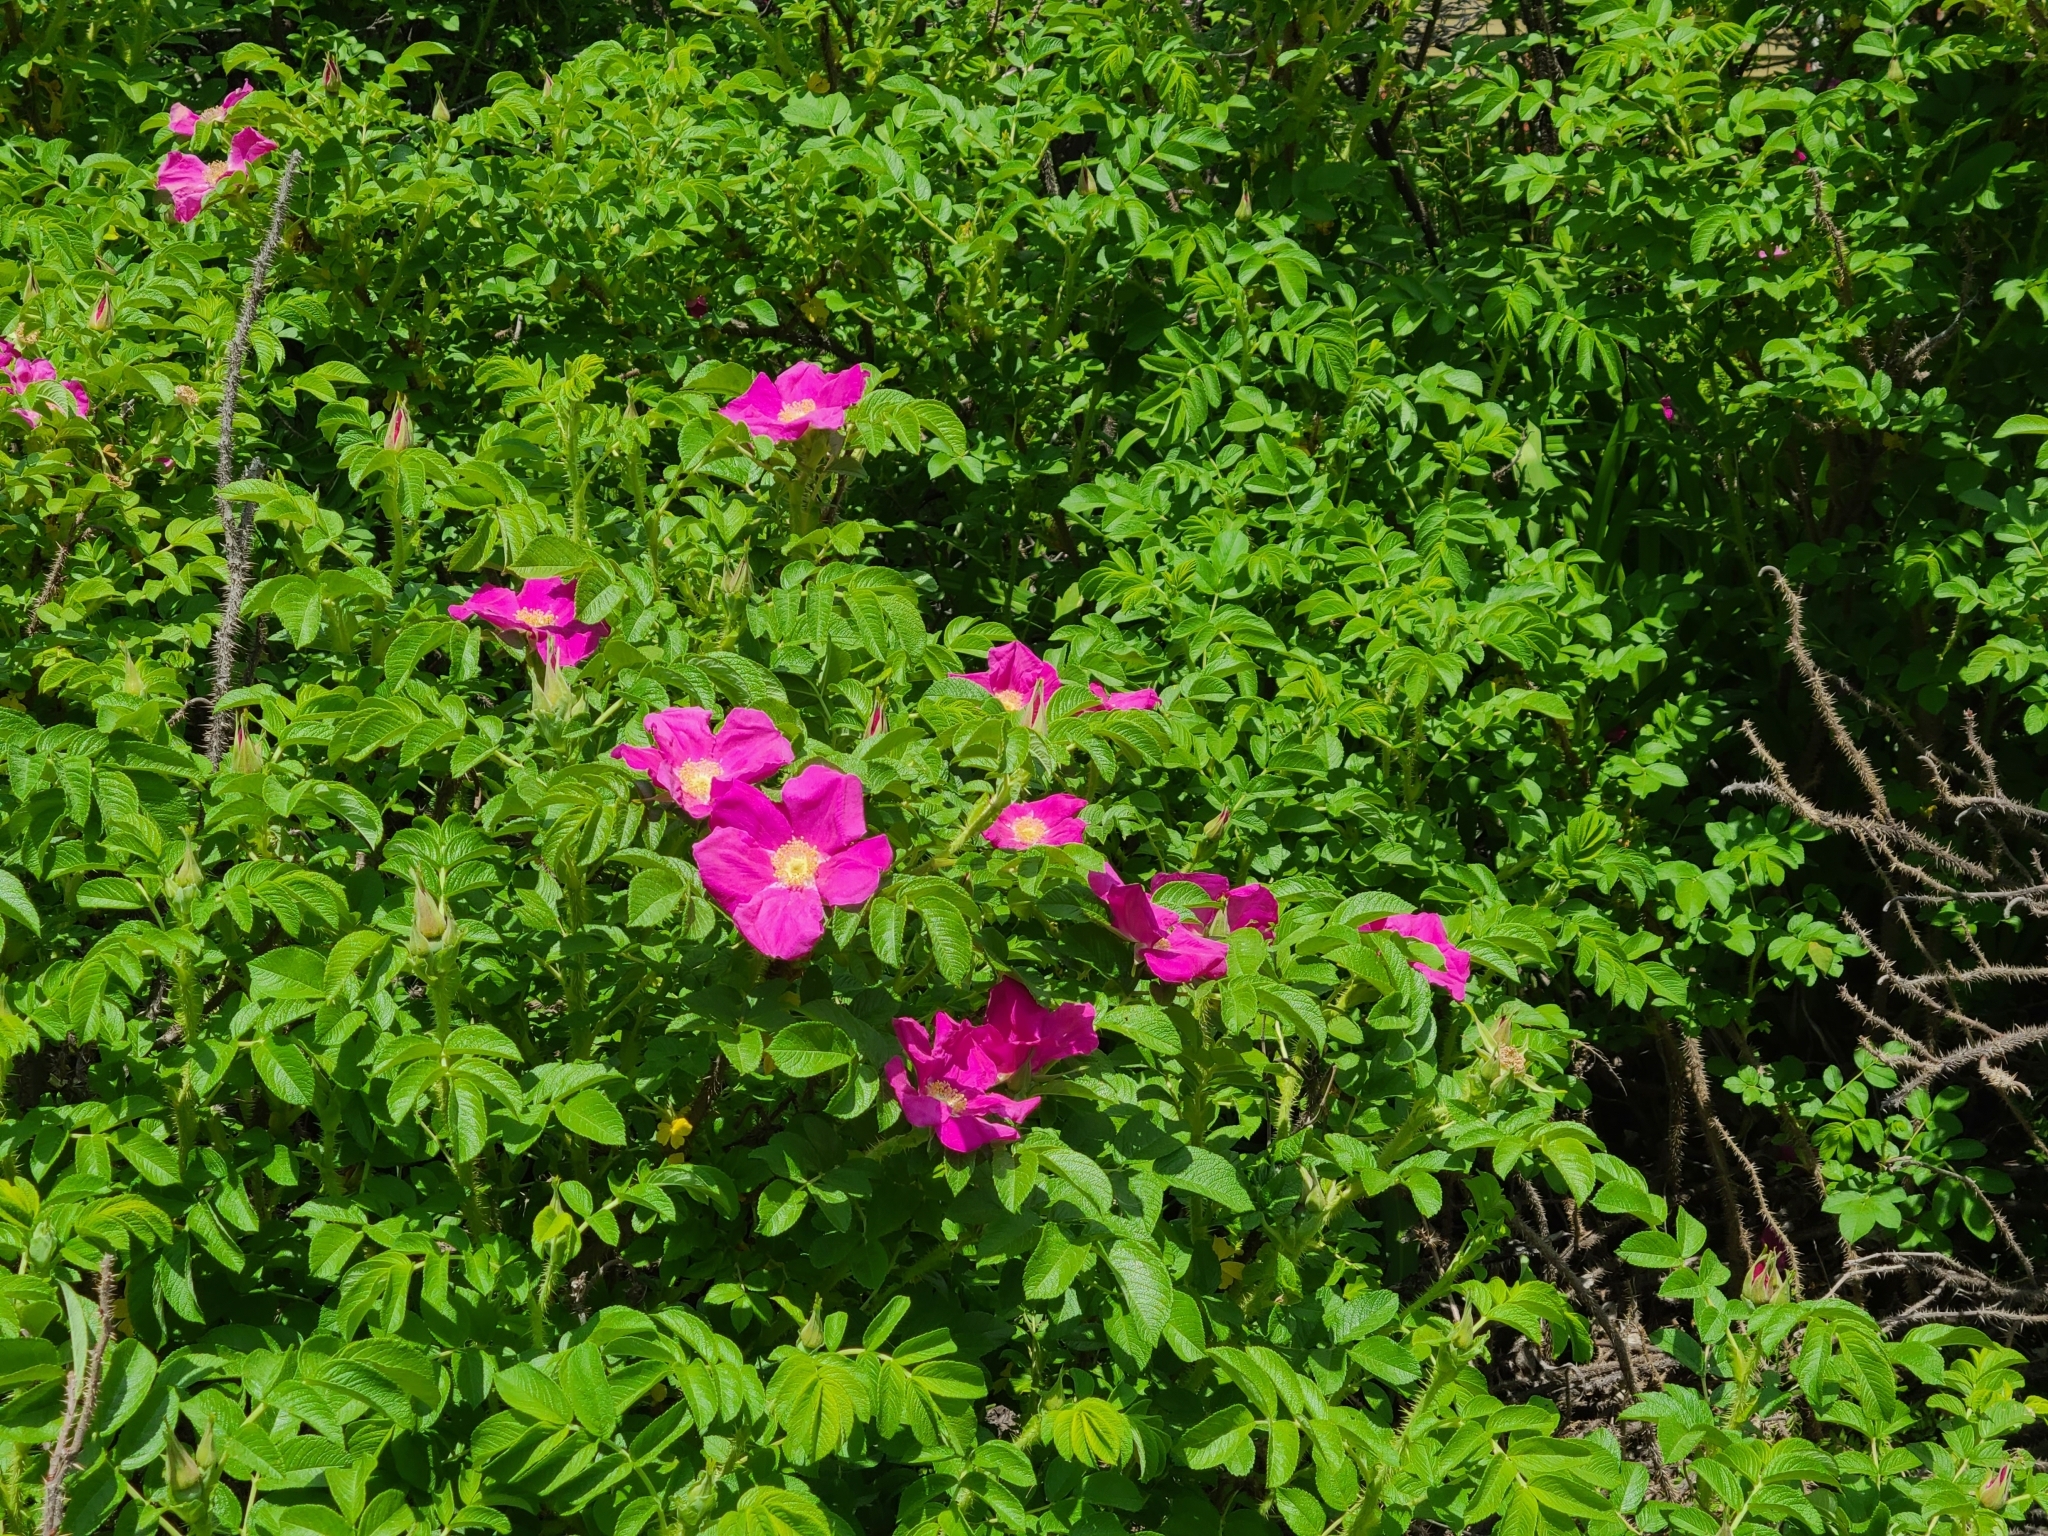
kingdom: Plantae
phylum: Tracheophyta
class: Magnoliopsida
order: Rosales
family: Rosaceae
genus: Rosa
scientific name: Rosa rugosa
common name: Japanese rose
